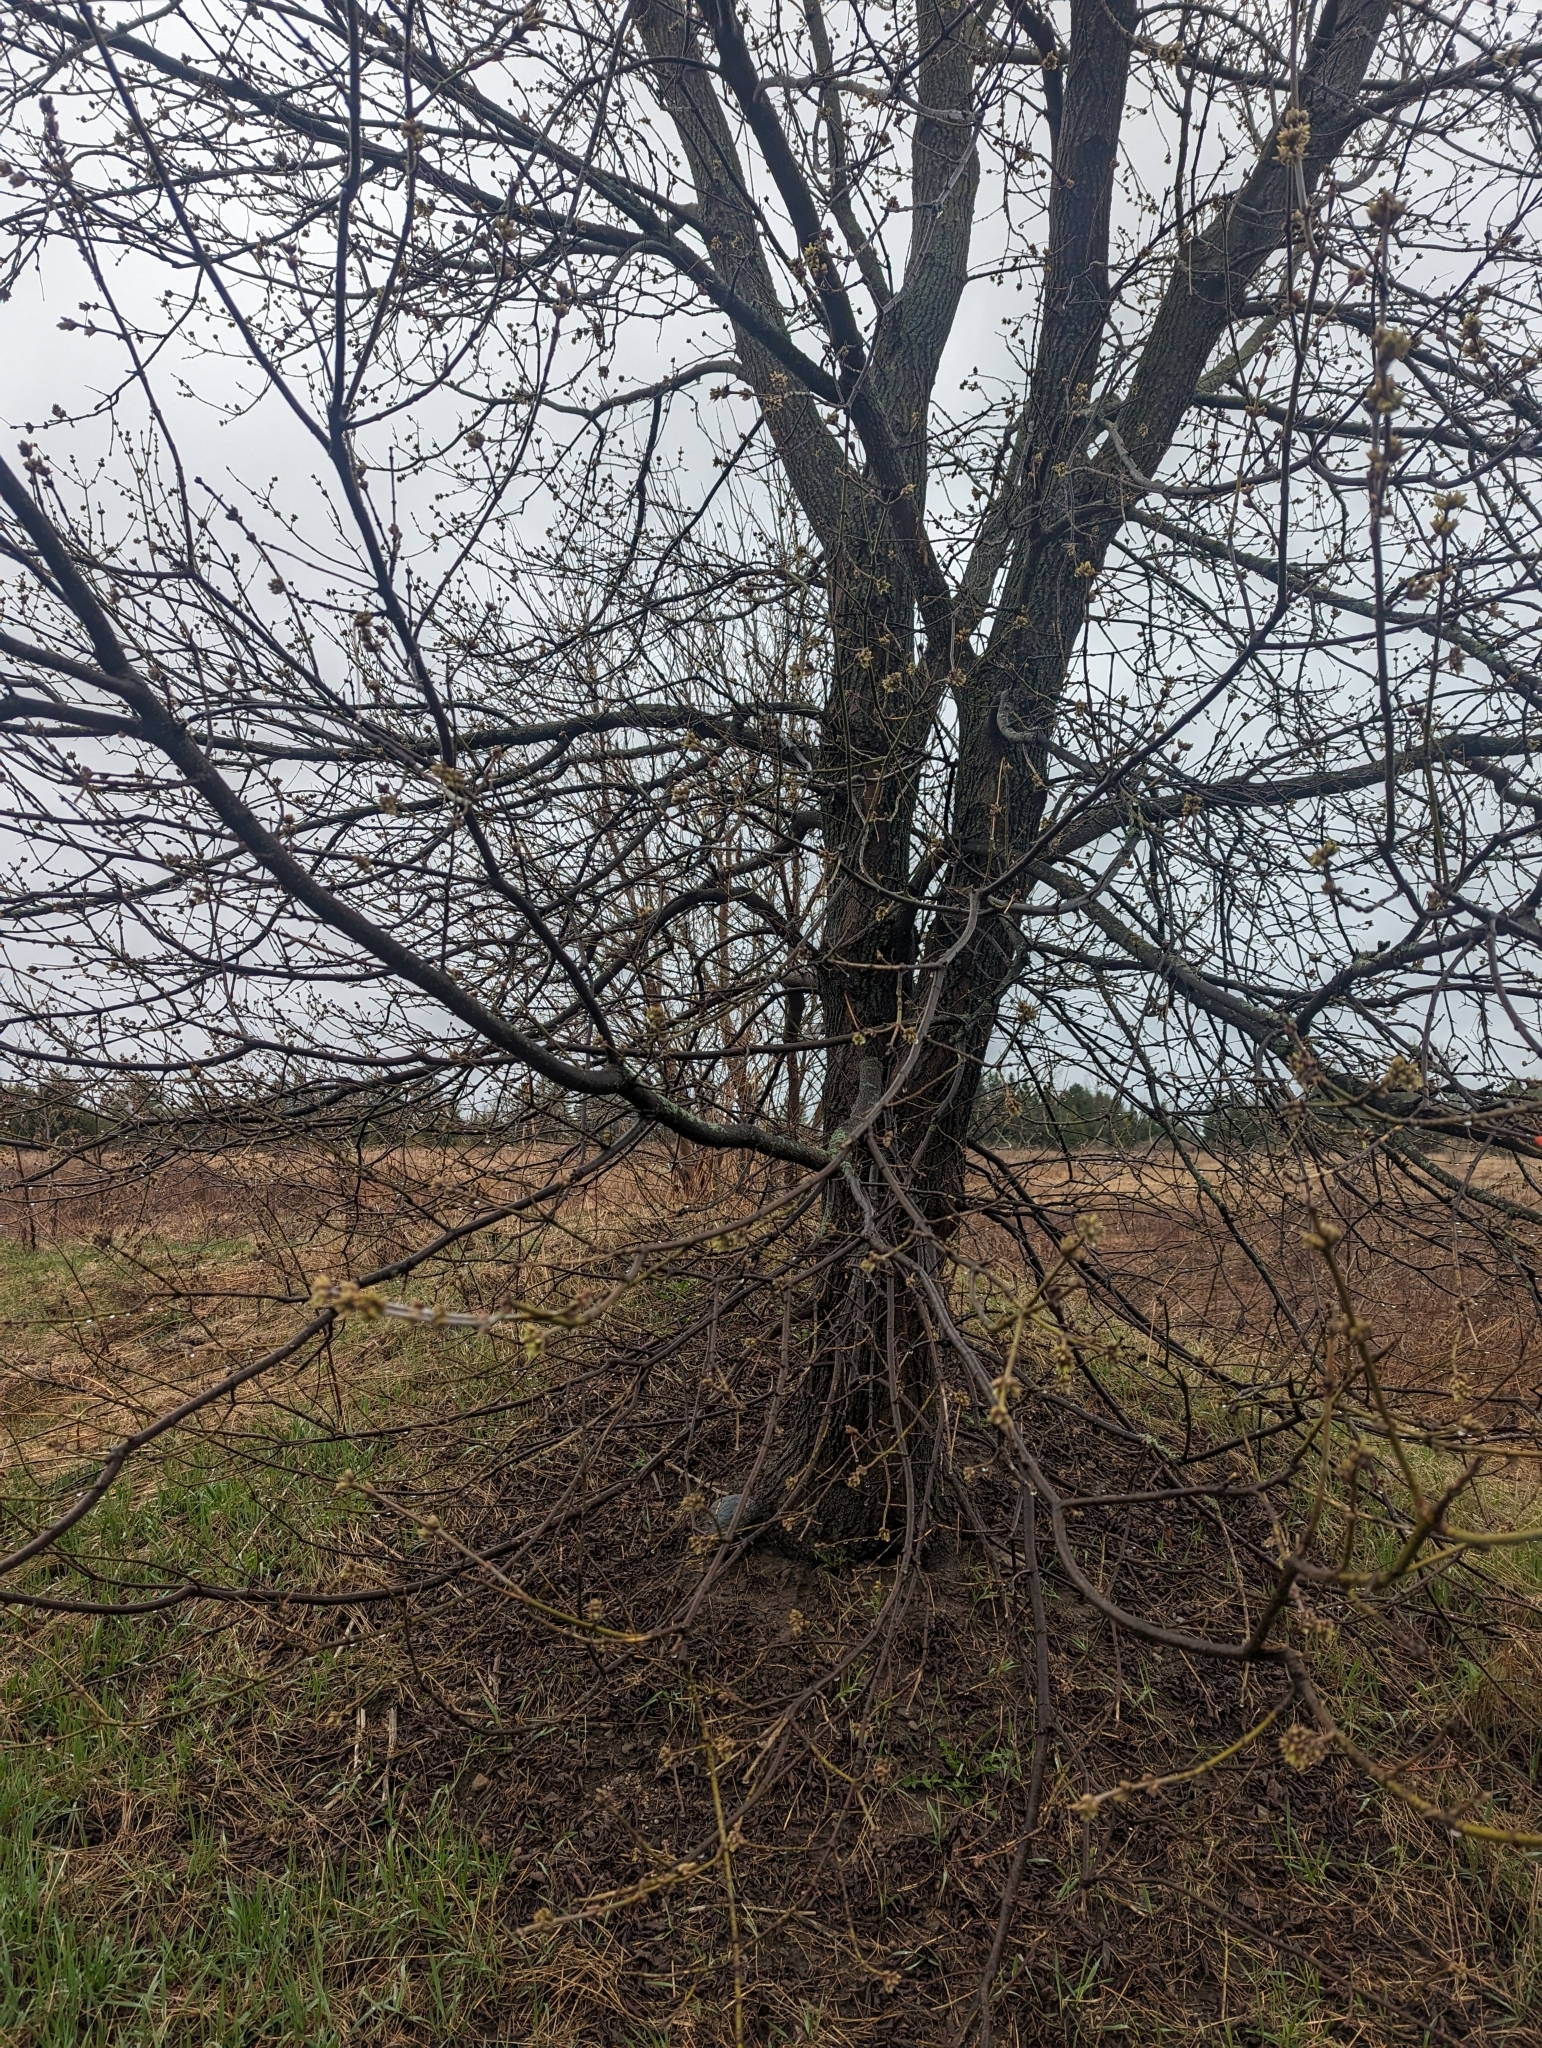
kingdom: Plantae
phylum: Tracheophyta
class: Magnoliopsida
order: Sapindales
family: Sapindaceae
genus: Acer
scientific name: Acer negundo
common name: Ashleaf maple
